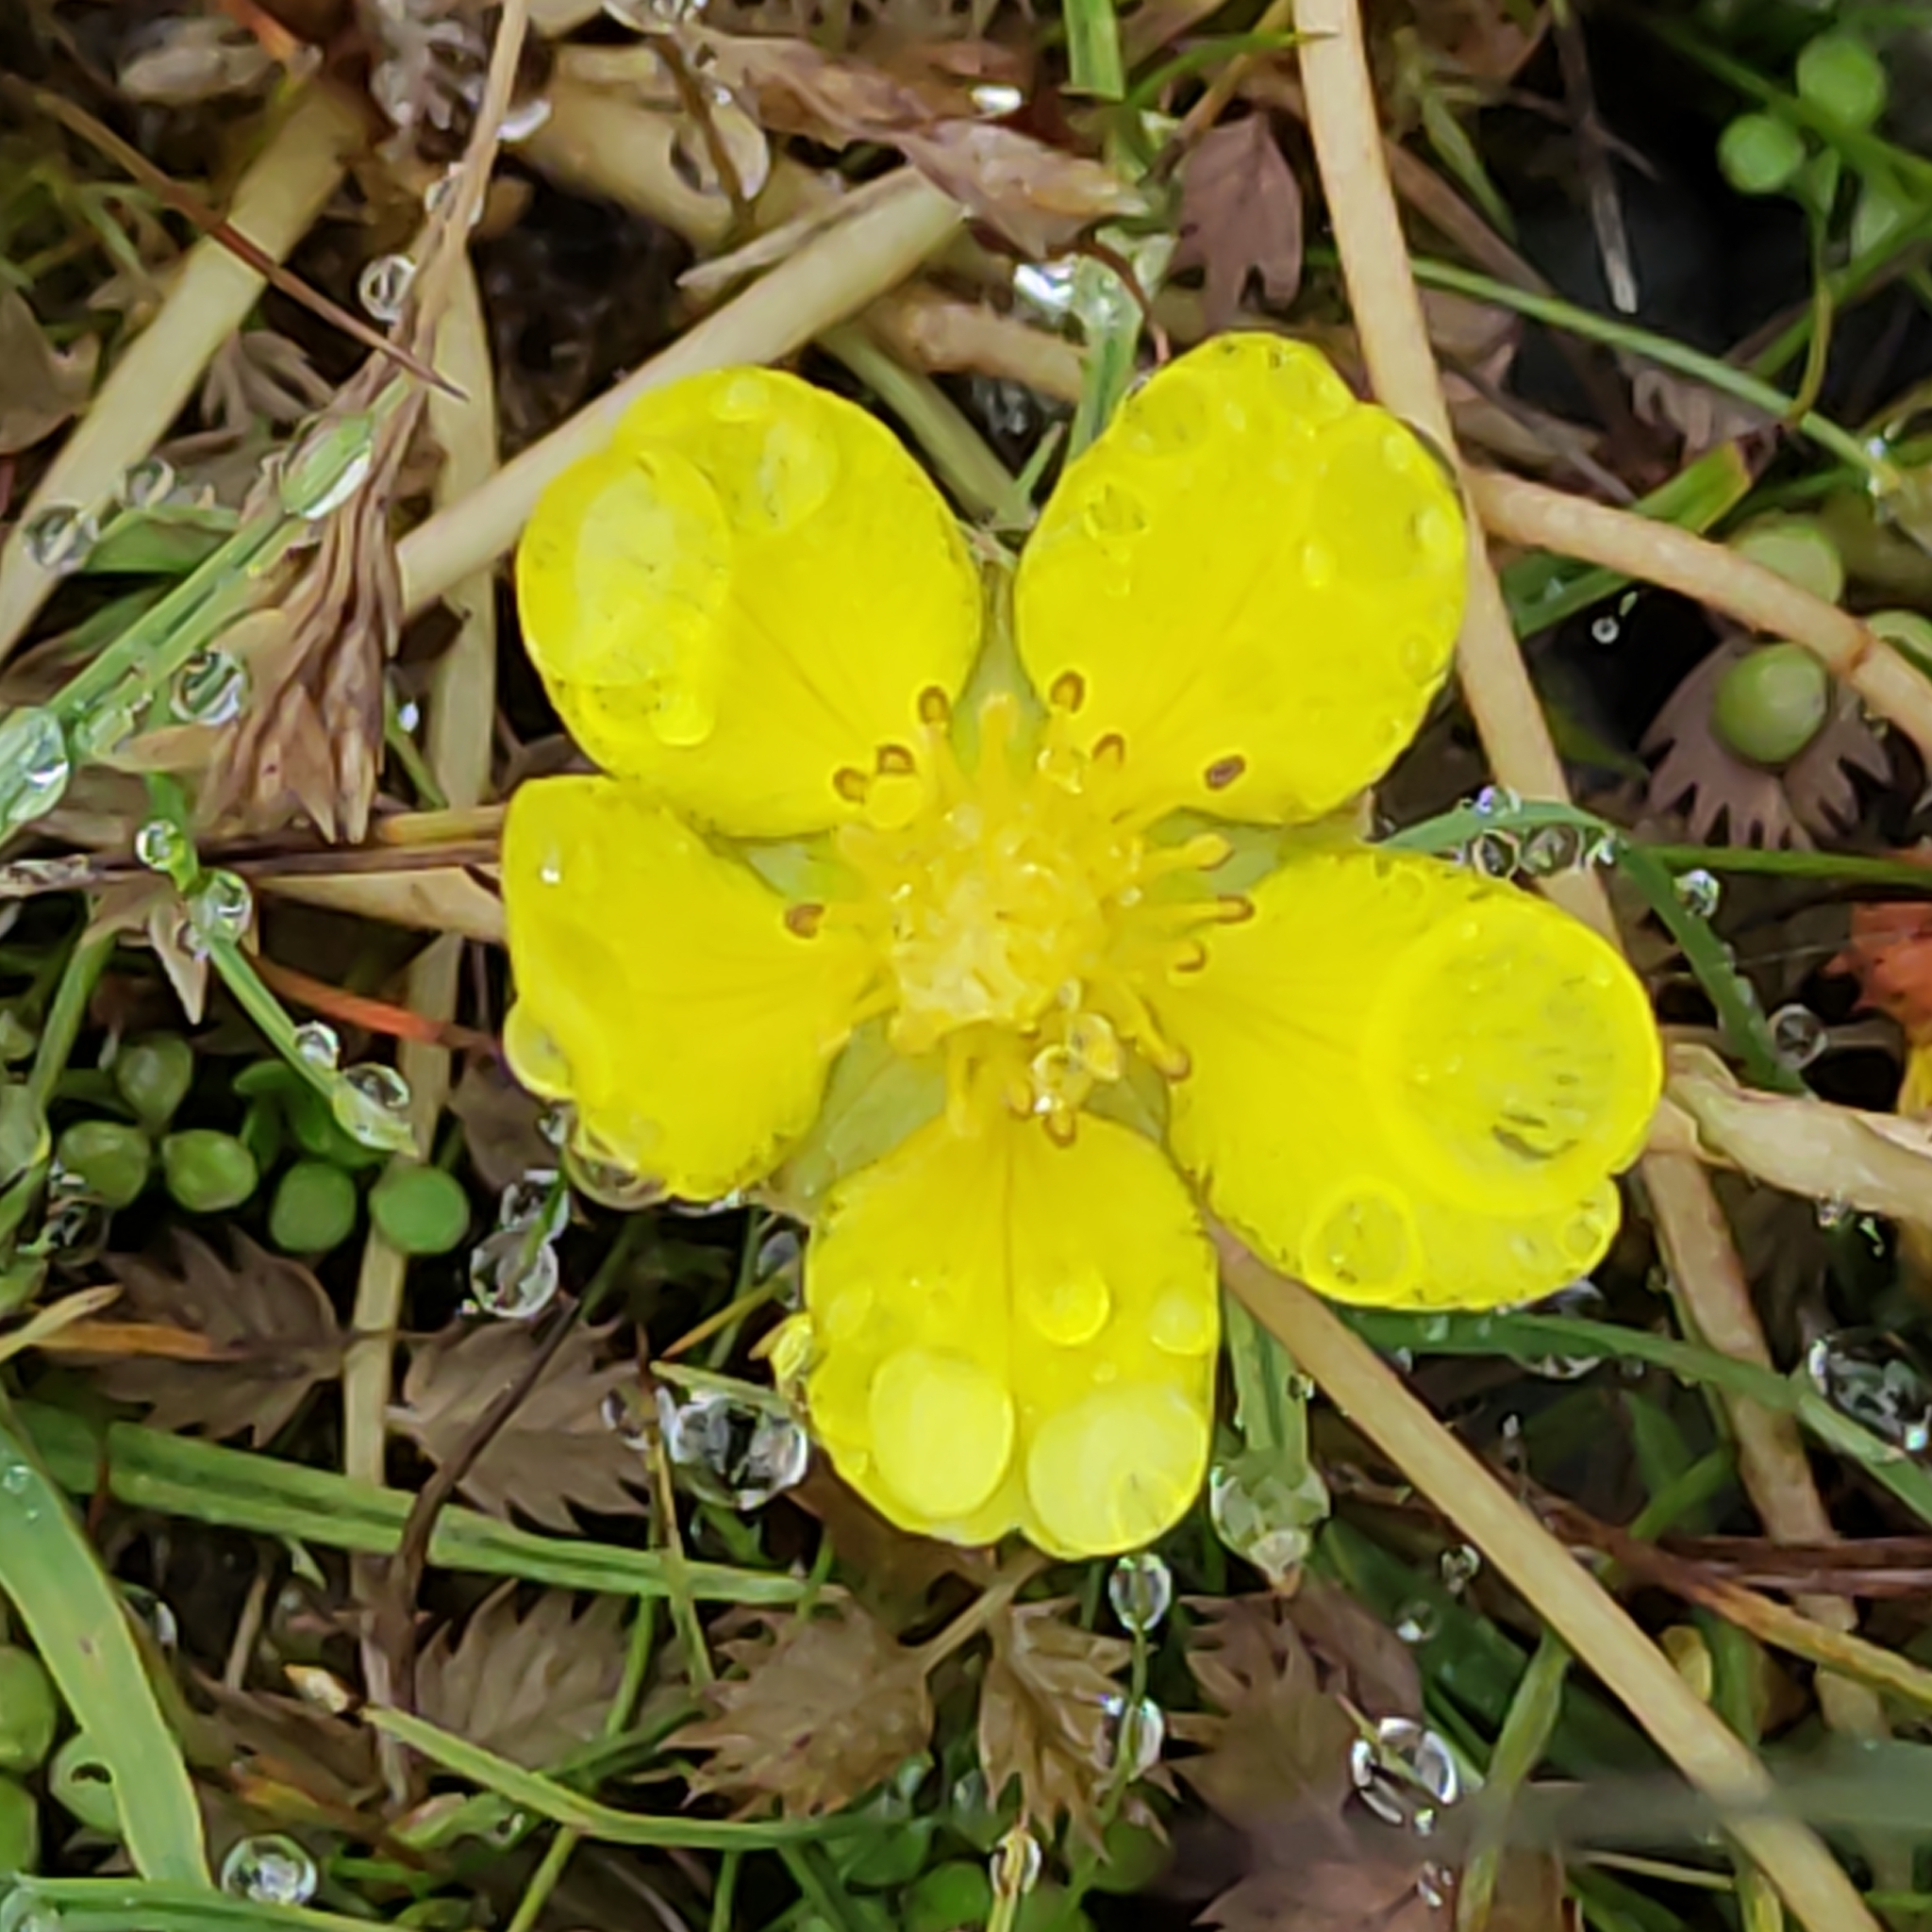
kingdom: Plantae
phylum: Tracheophyta
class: Magnoliopsida
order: Rosales
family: Rosaceae
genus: Argentina
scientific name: Argentina anserinoides
